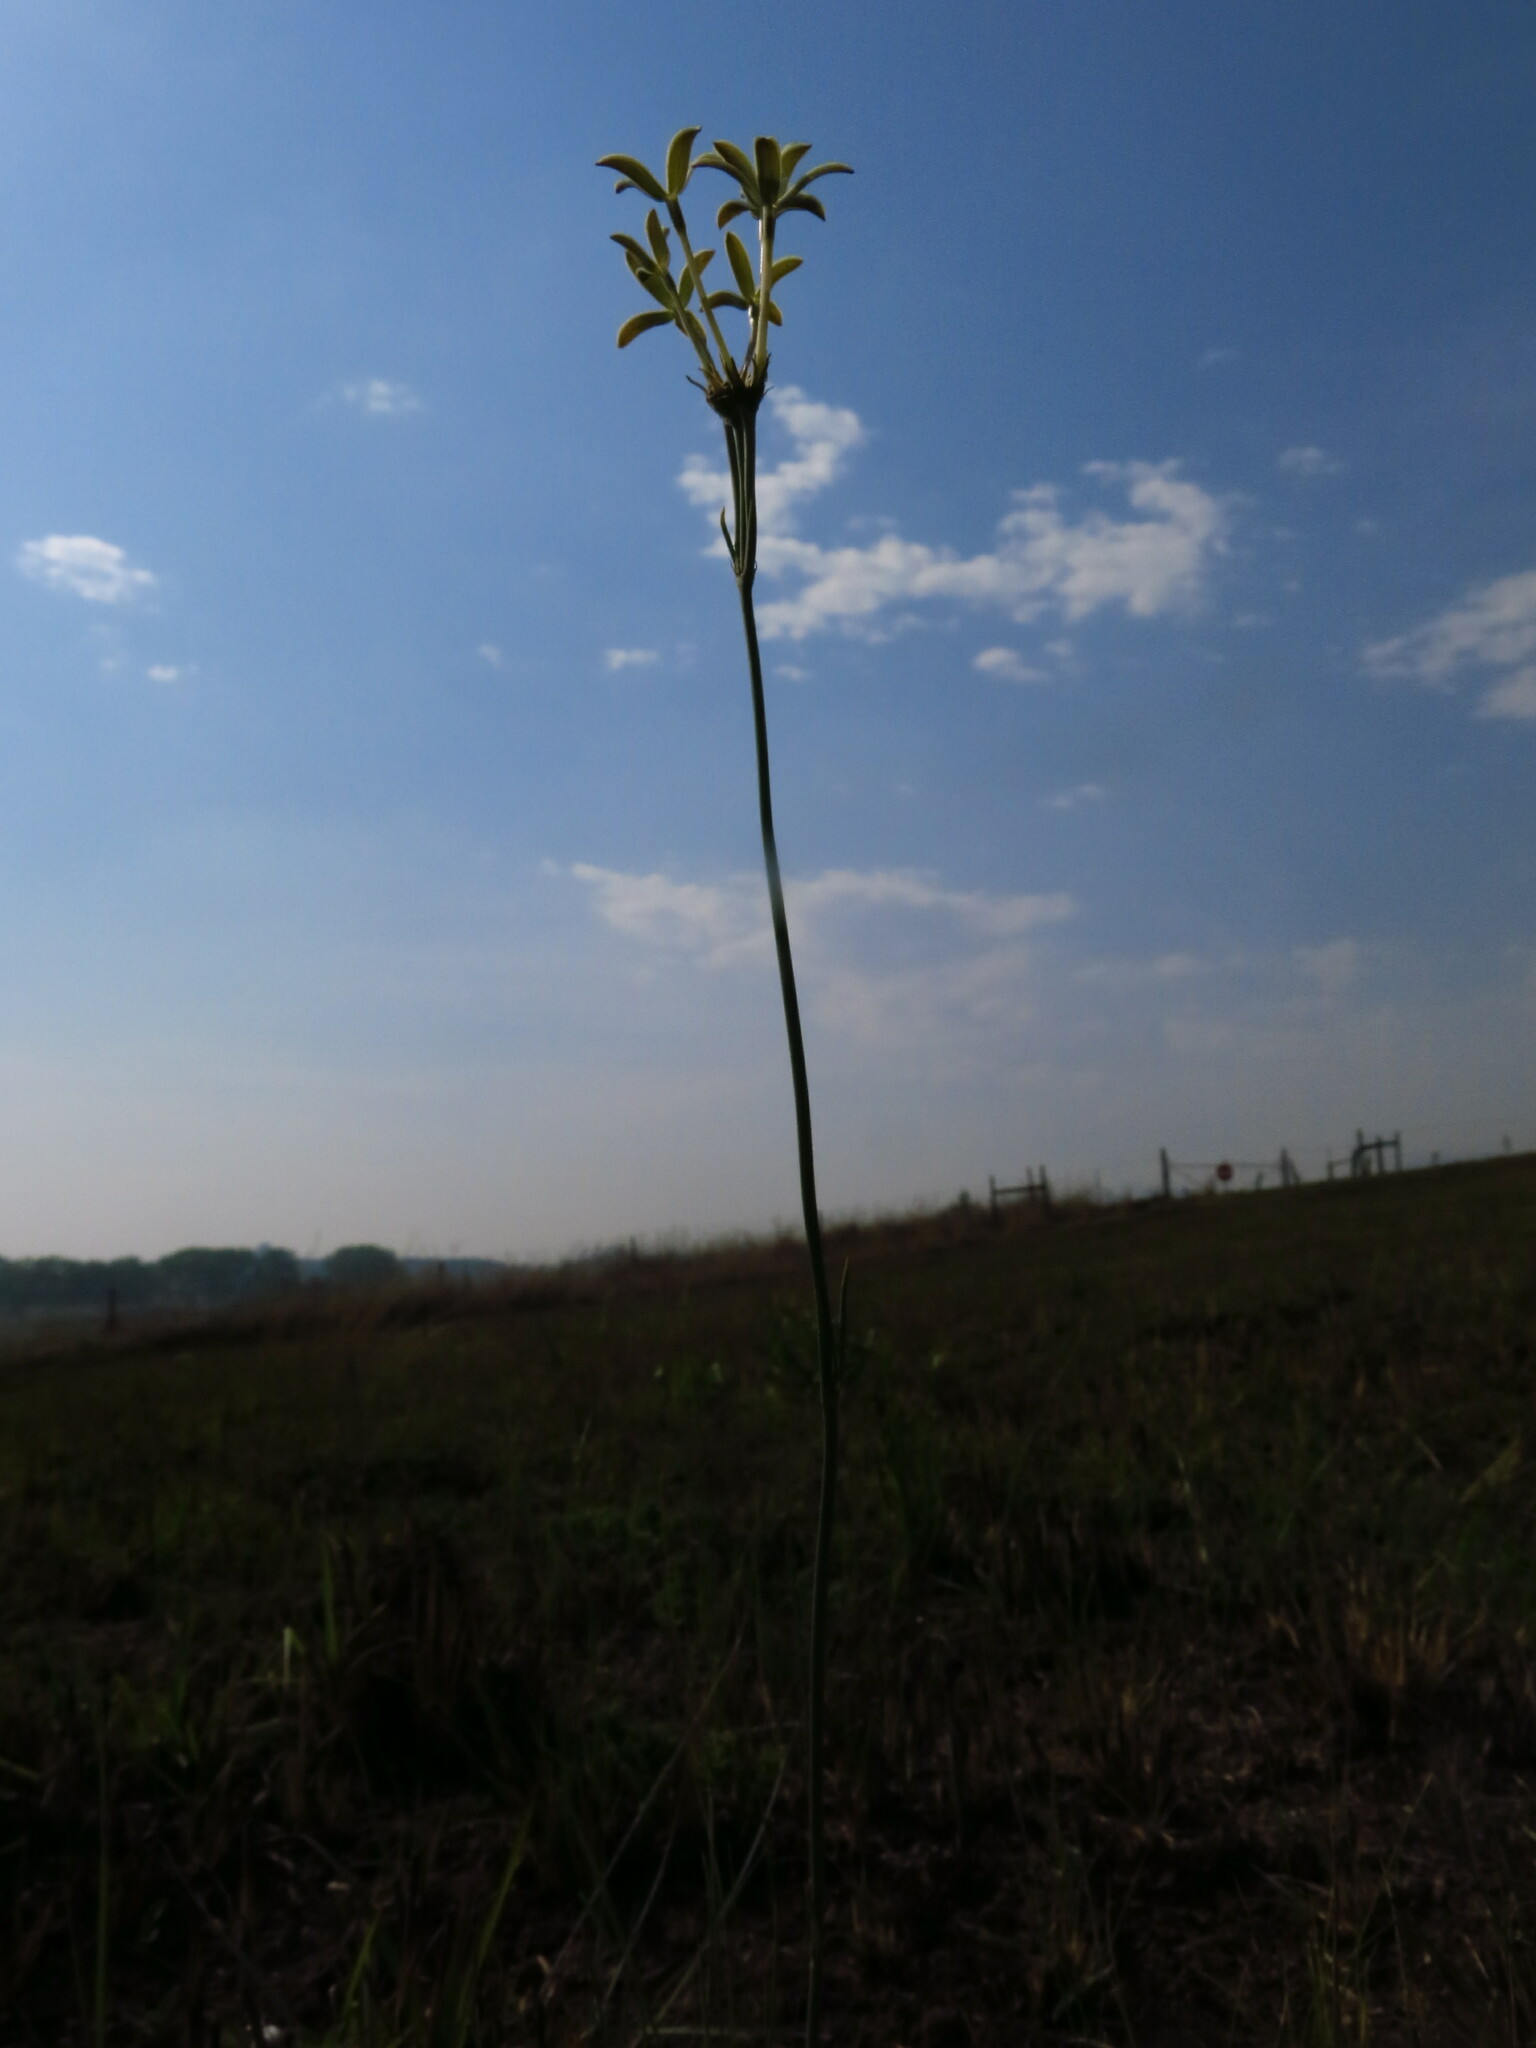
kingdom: Plantae
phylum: Tracheophyta
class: Magnoliopsida
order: Gentianales
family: Rubiaceae
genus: Kohautia
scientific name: Kohautia amatymbica
